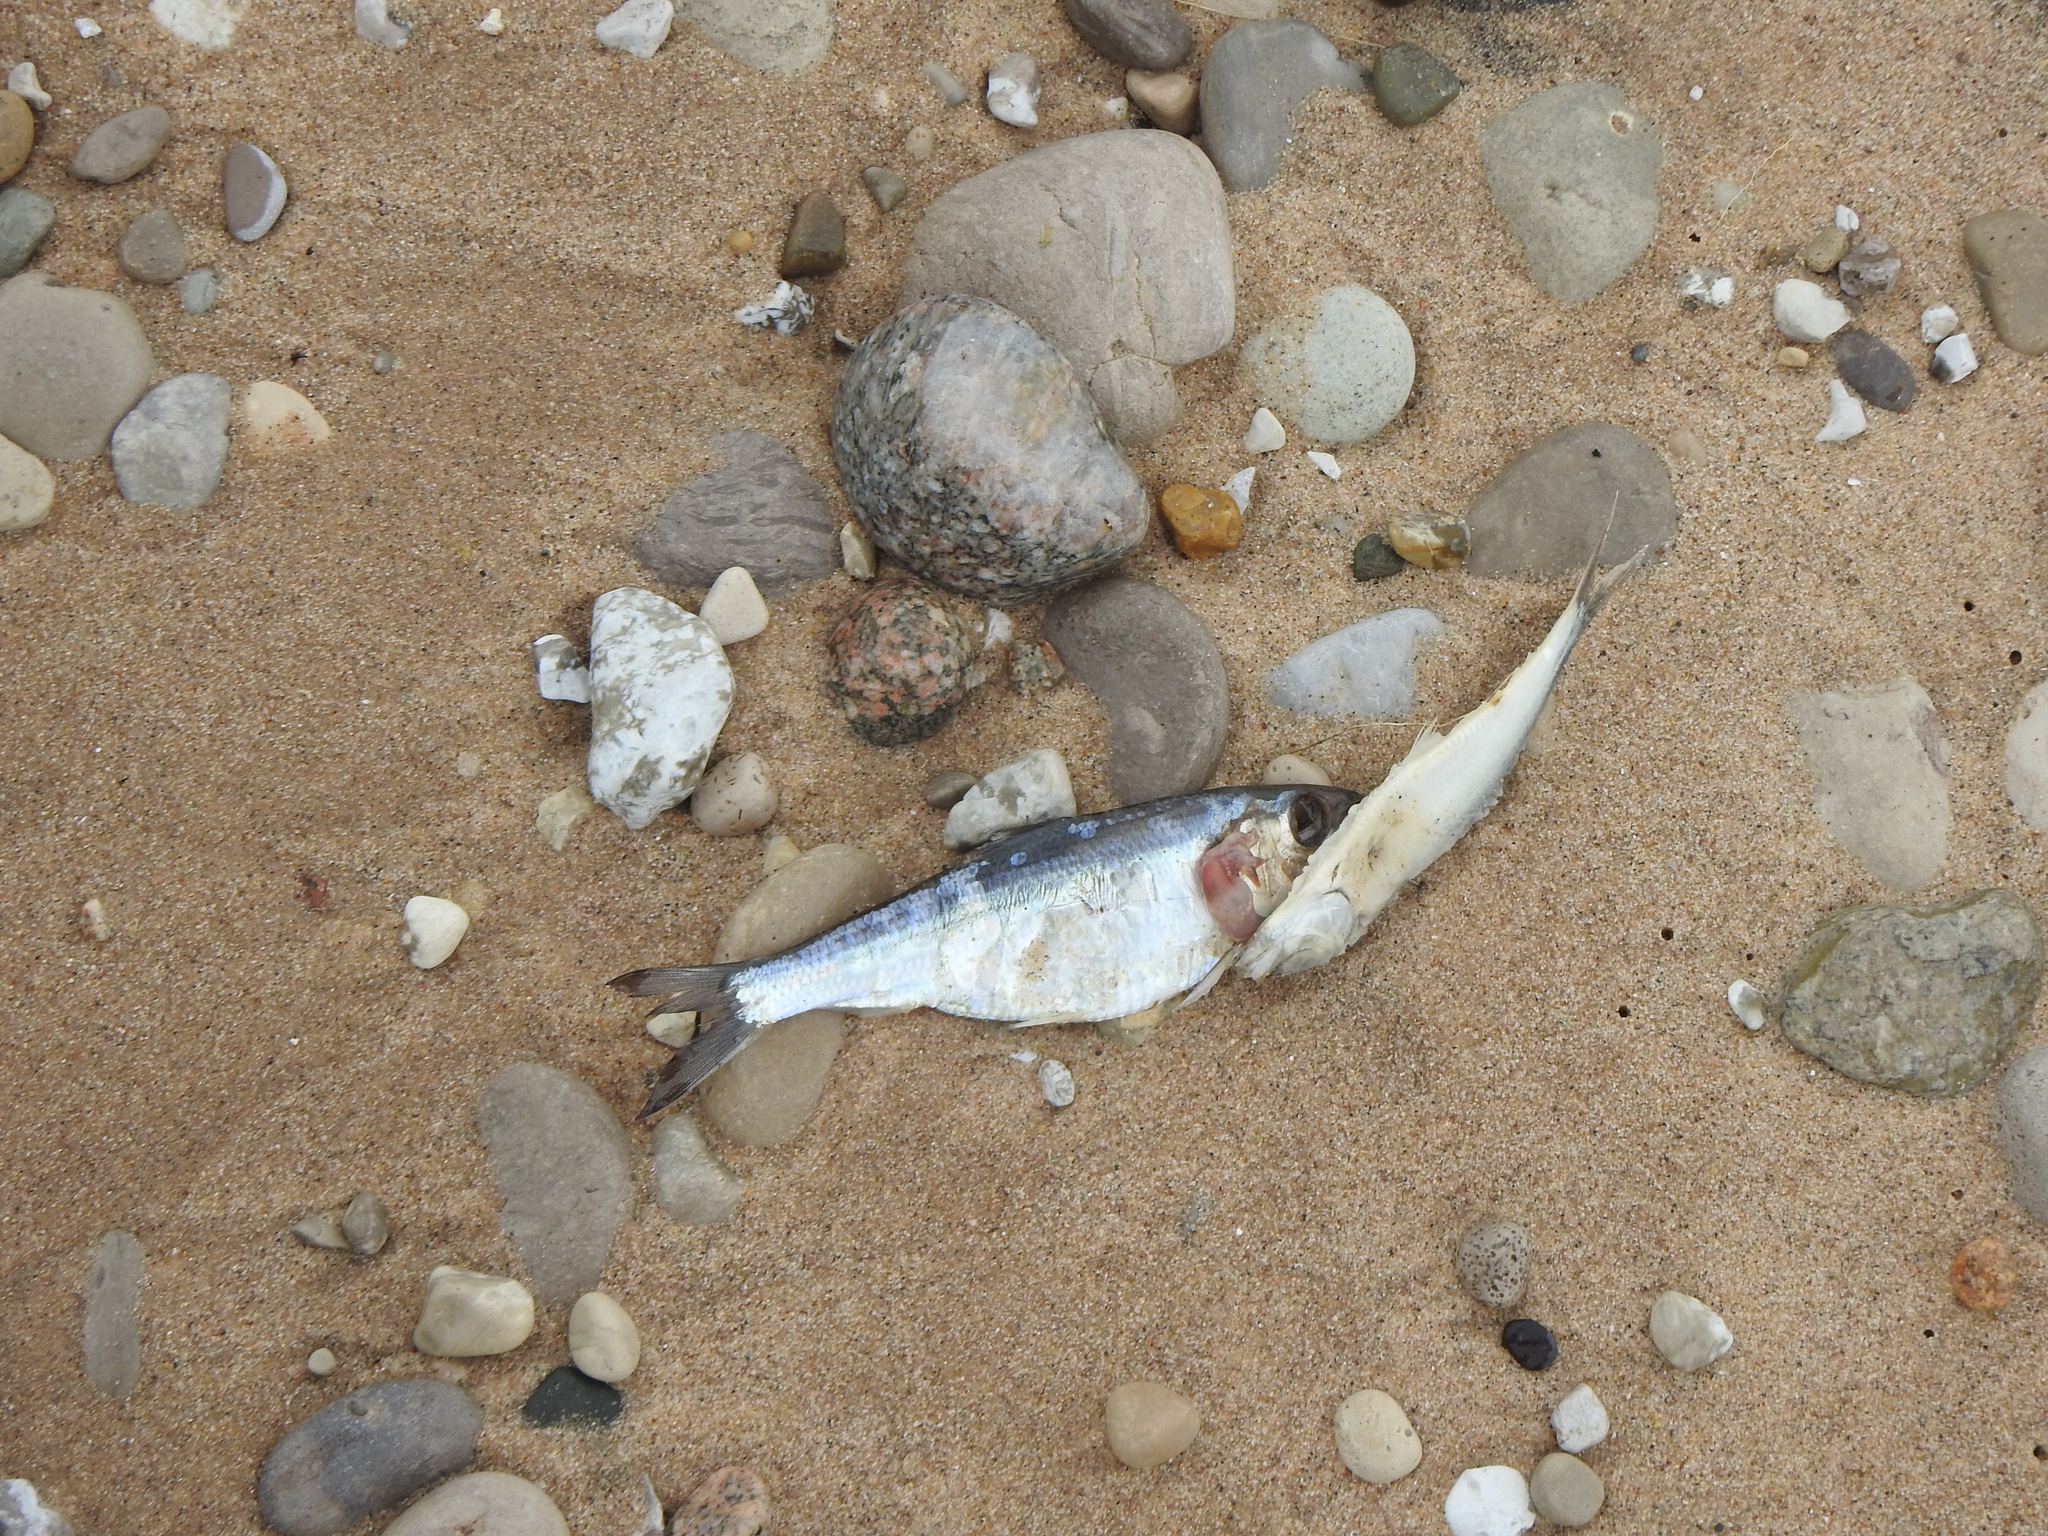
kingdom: Animalia
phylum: Chordata
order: Clupeiformes
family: Clupeidae
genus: Alosa
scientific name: Alosa pseudoharengus
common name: Alewife
